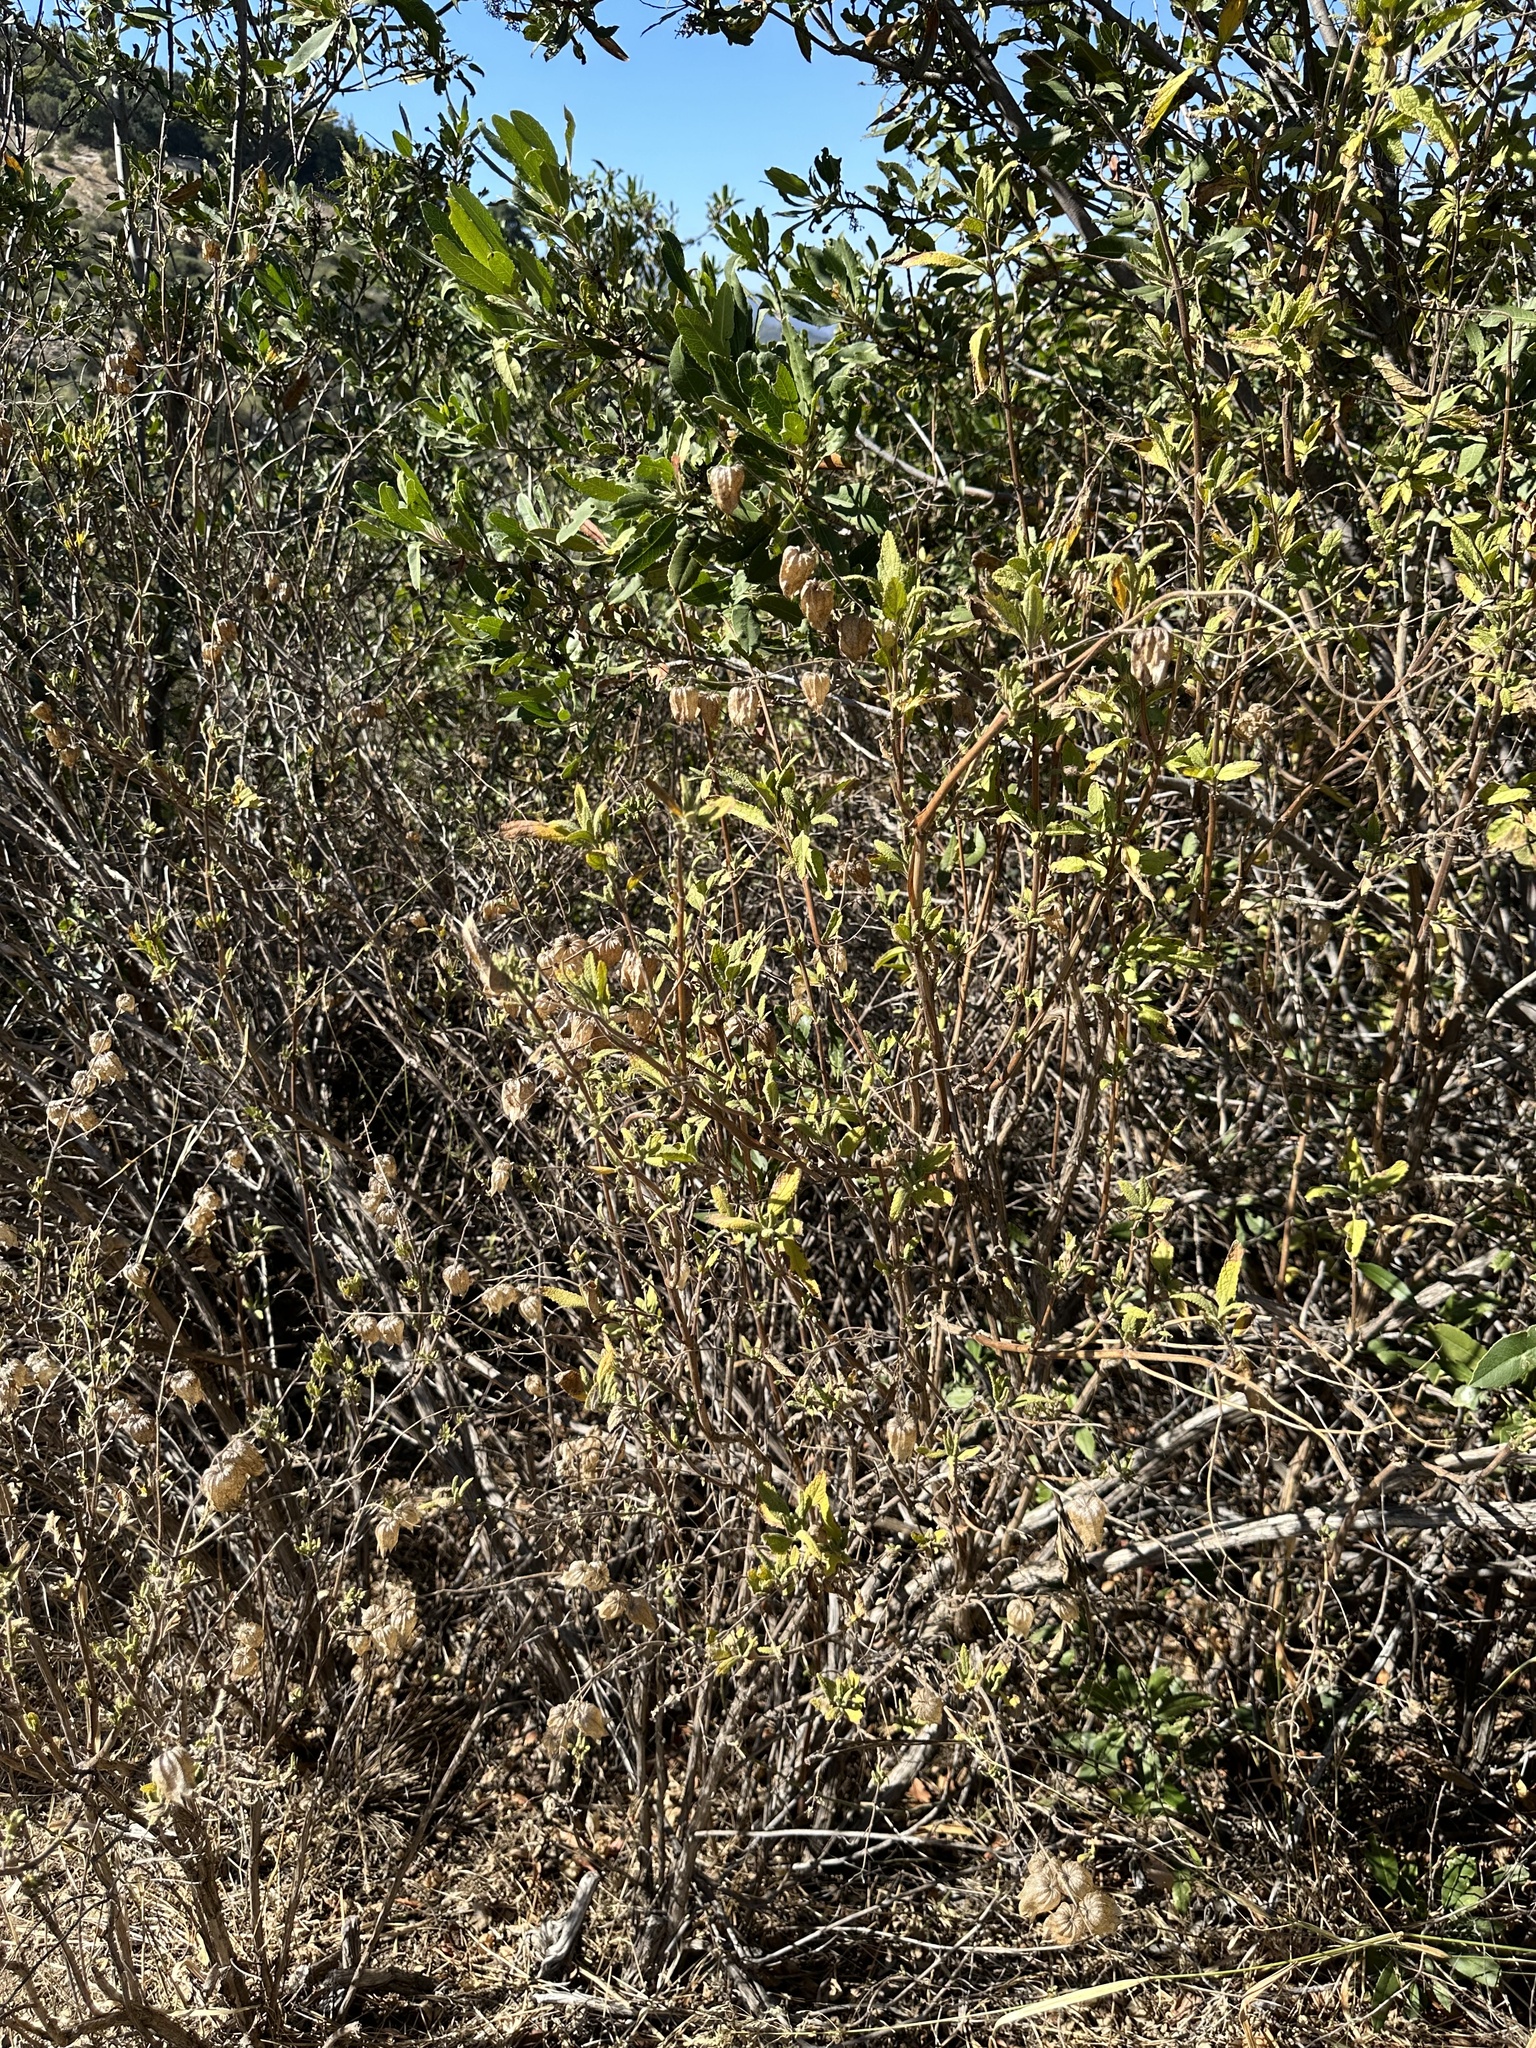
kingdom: Plantae
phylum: Tracheophyta
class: Magnoliopsida
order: Lamiales
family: Lamiaceae
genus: Lepechinia
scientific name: Lepechinia calycina
